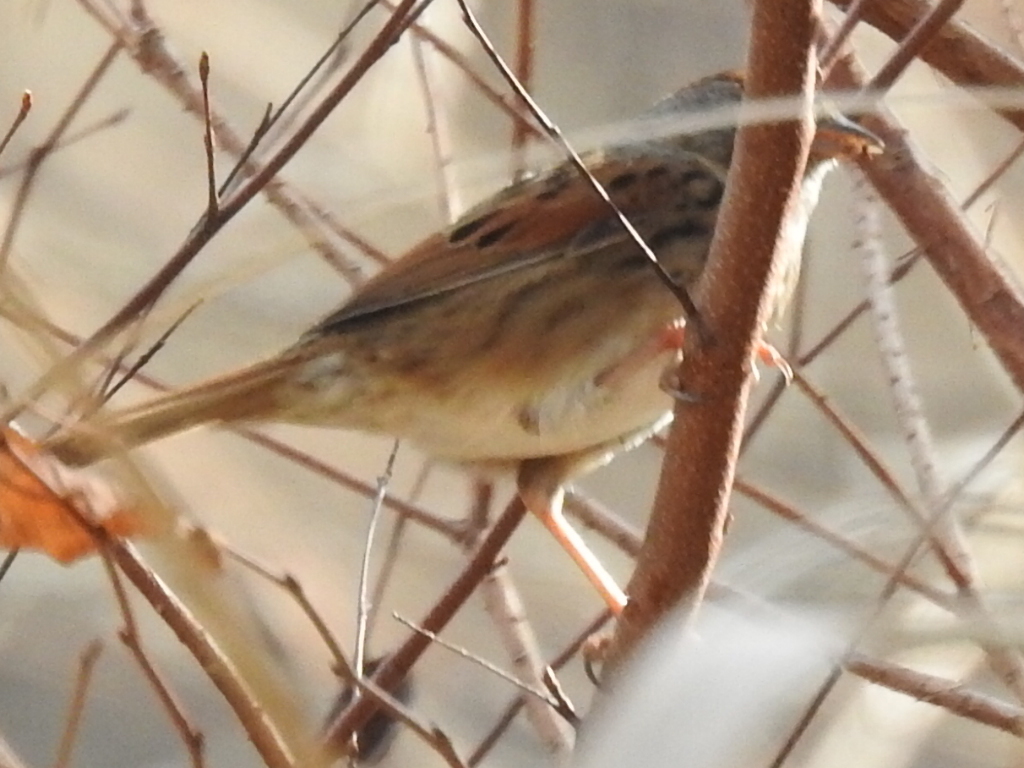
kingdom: Animalia
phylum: Chordata
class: Aves
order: Passeriformes
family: Passerellidae
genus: Melospiza
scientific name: Melospiza georgiana
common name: Swamp sparrow
